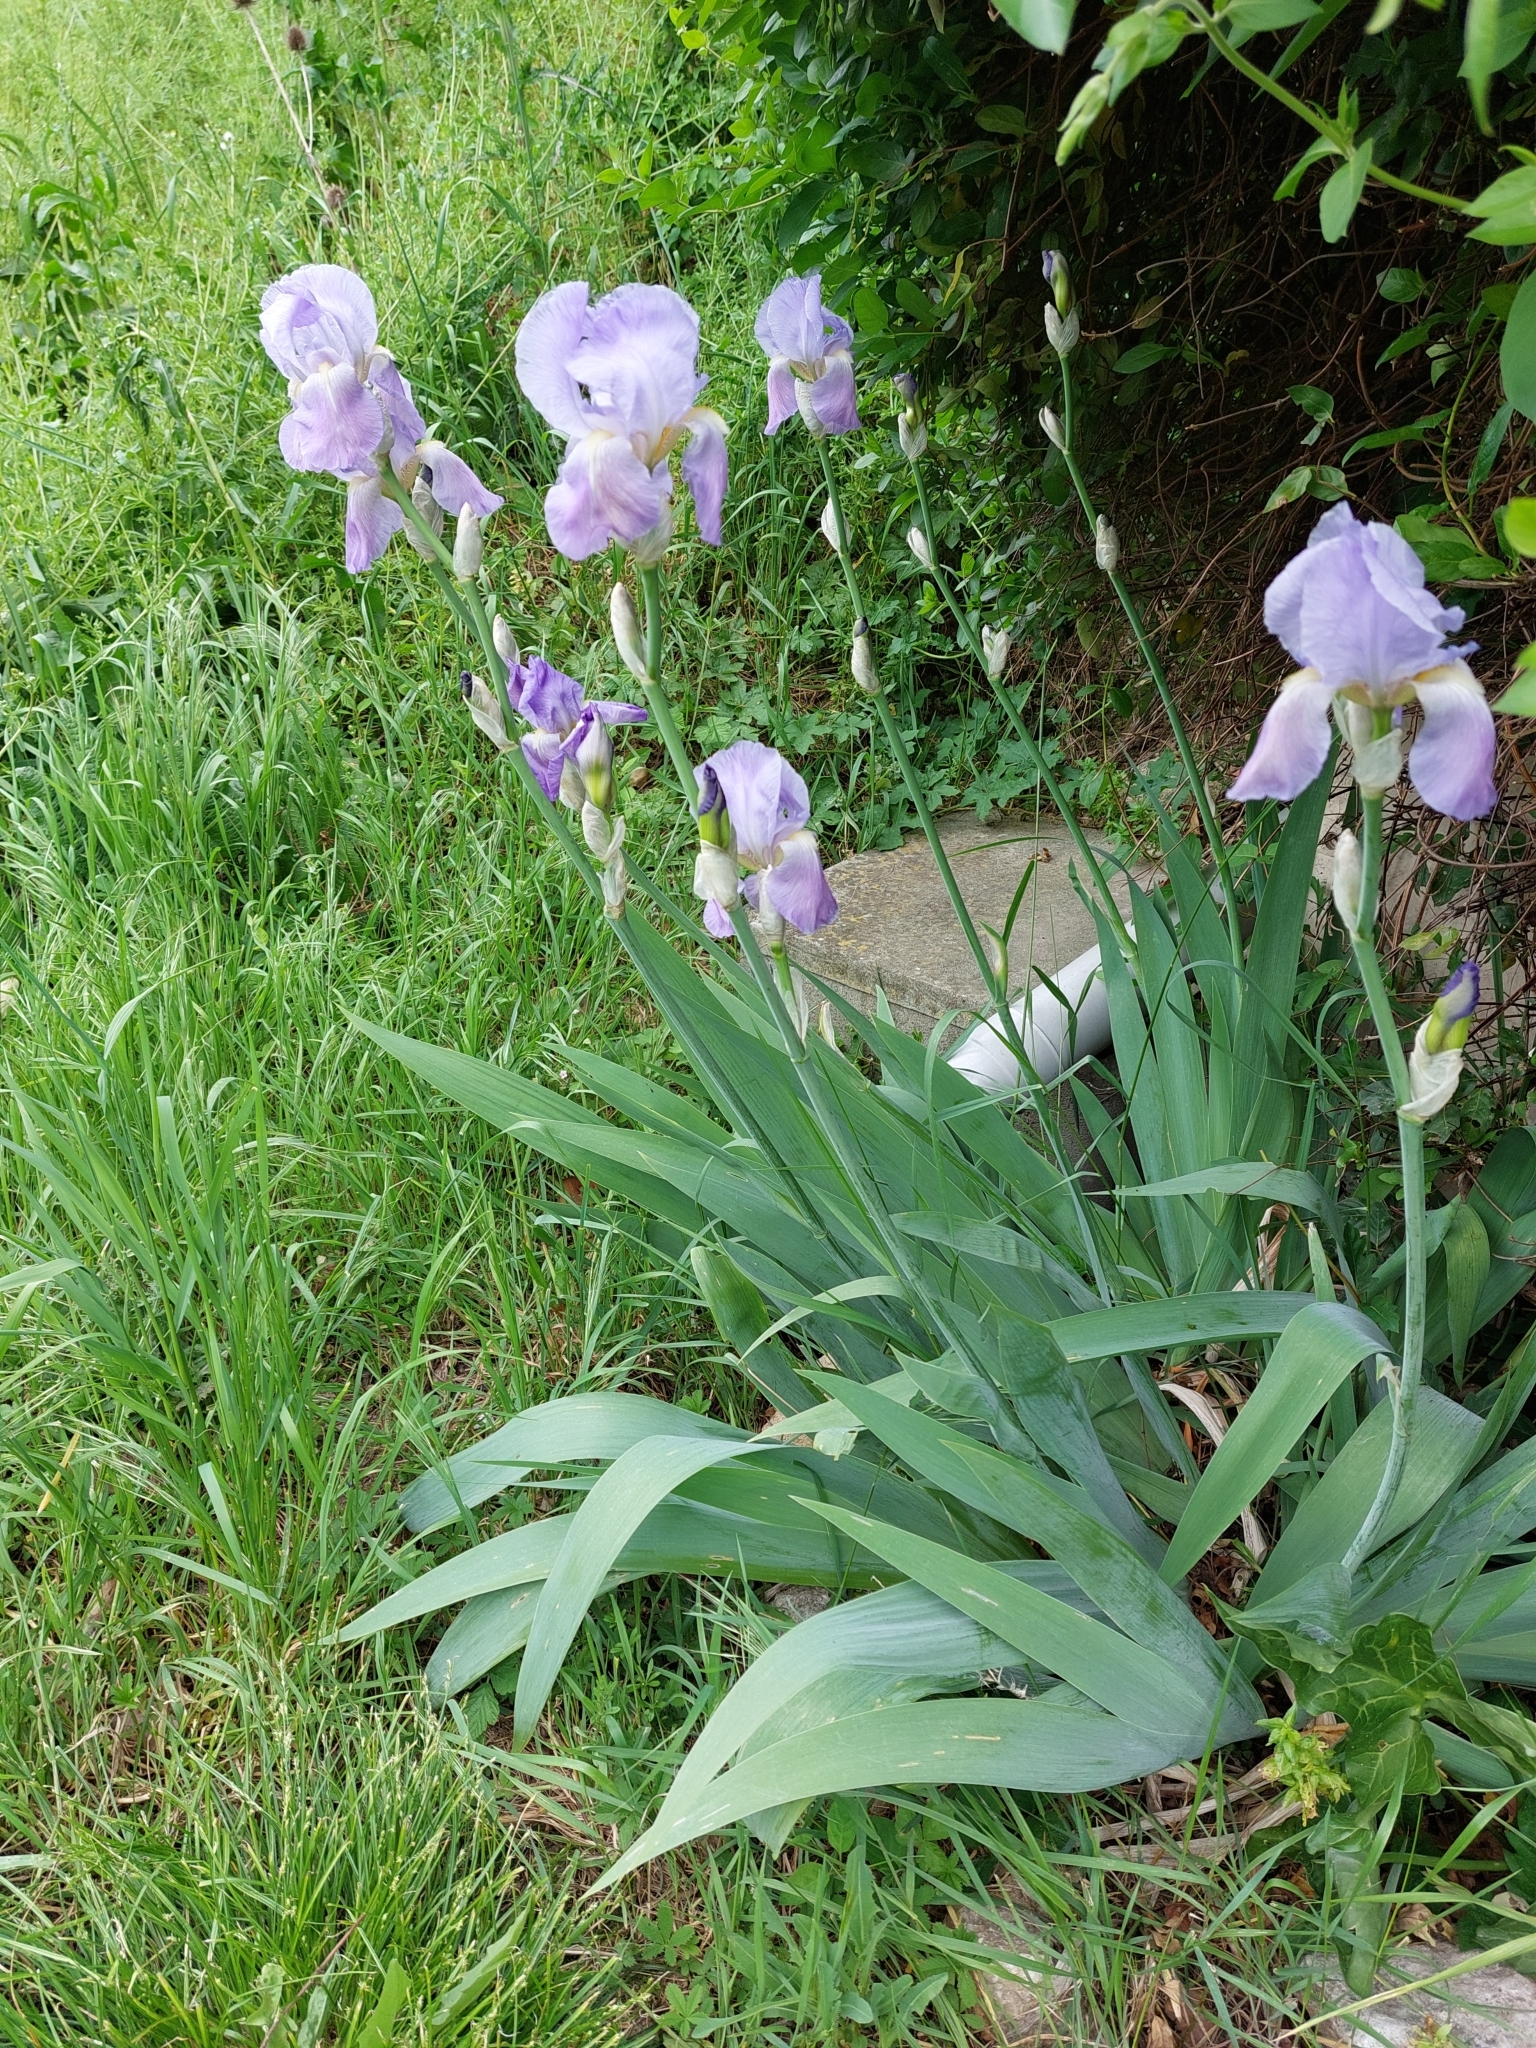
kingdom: Plantae
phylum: Tracheophyta
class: Liliopsida
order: Asparagales
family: Iridaceae
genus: Iris
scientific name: Iris pallida
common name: Sweet iris
